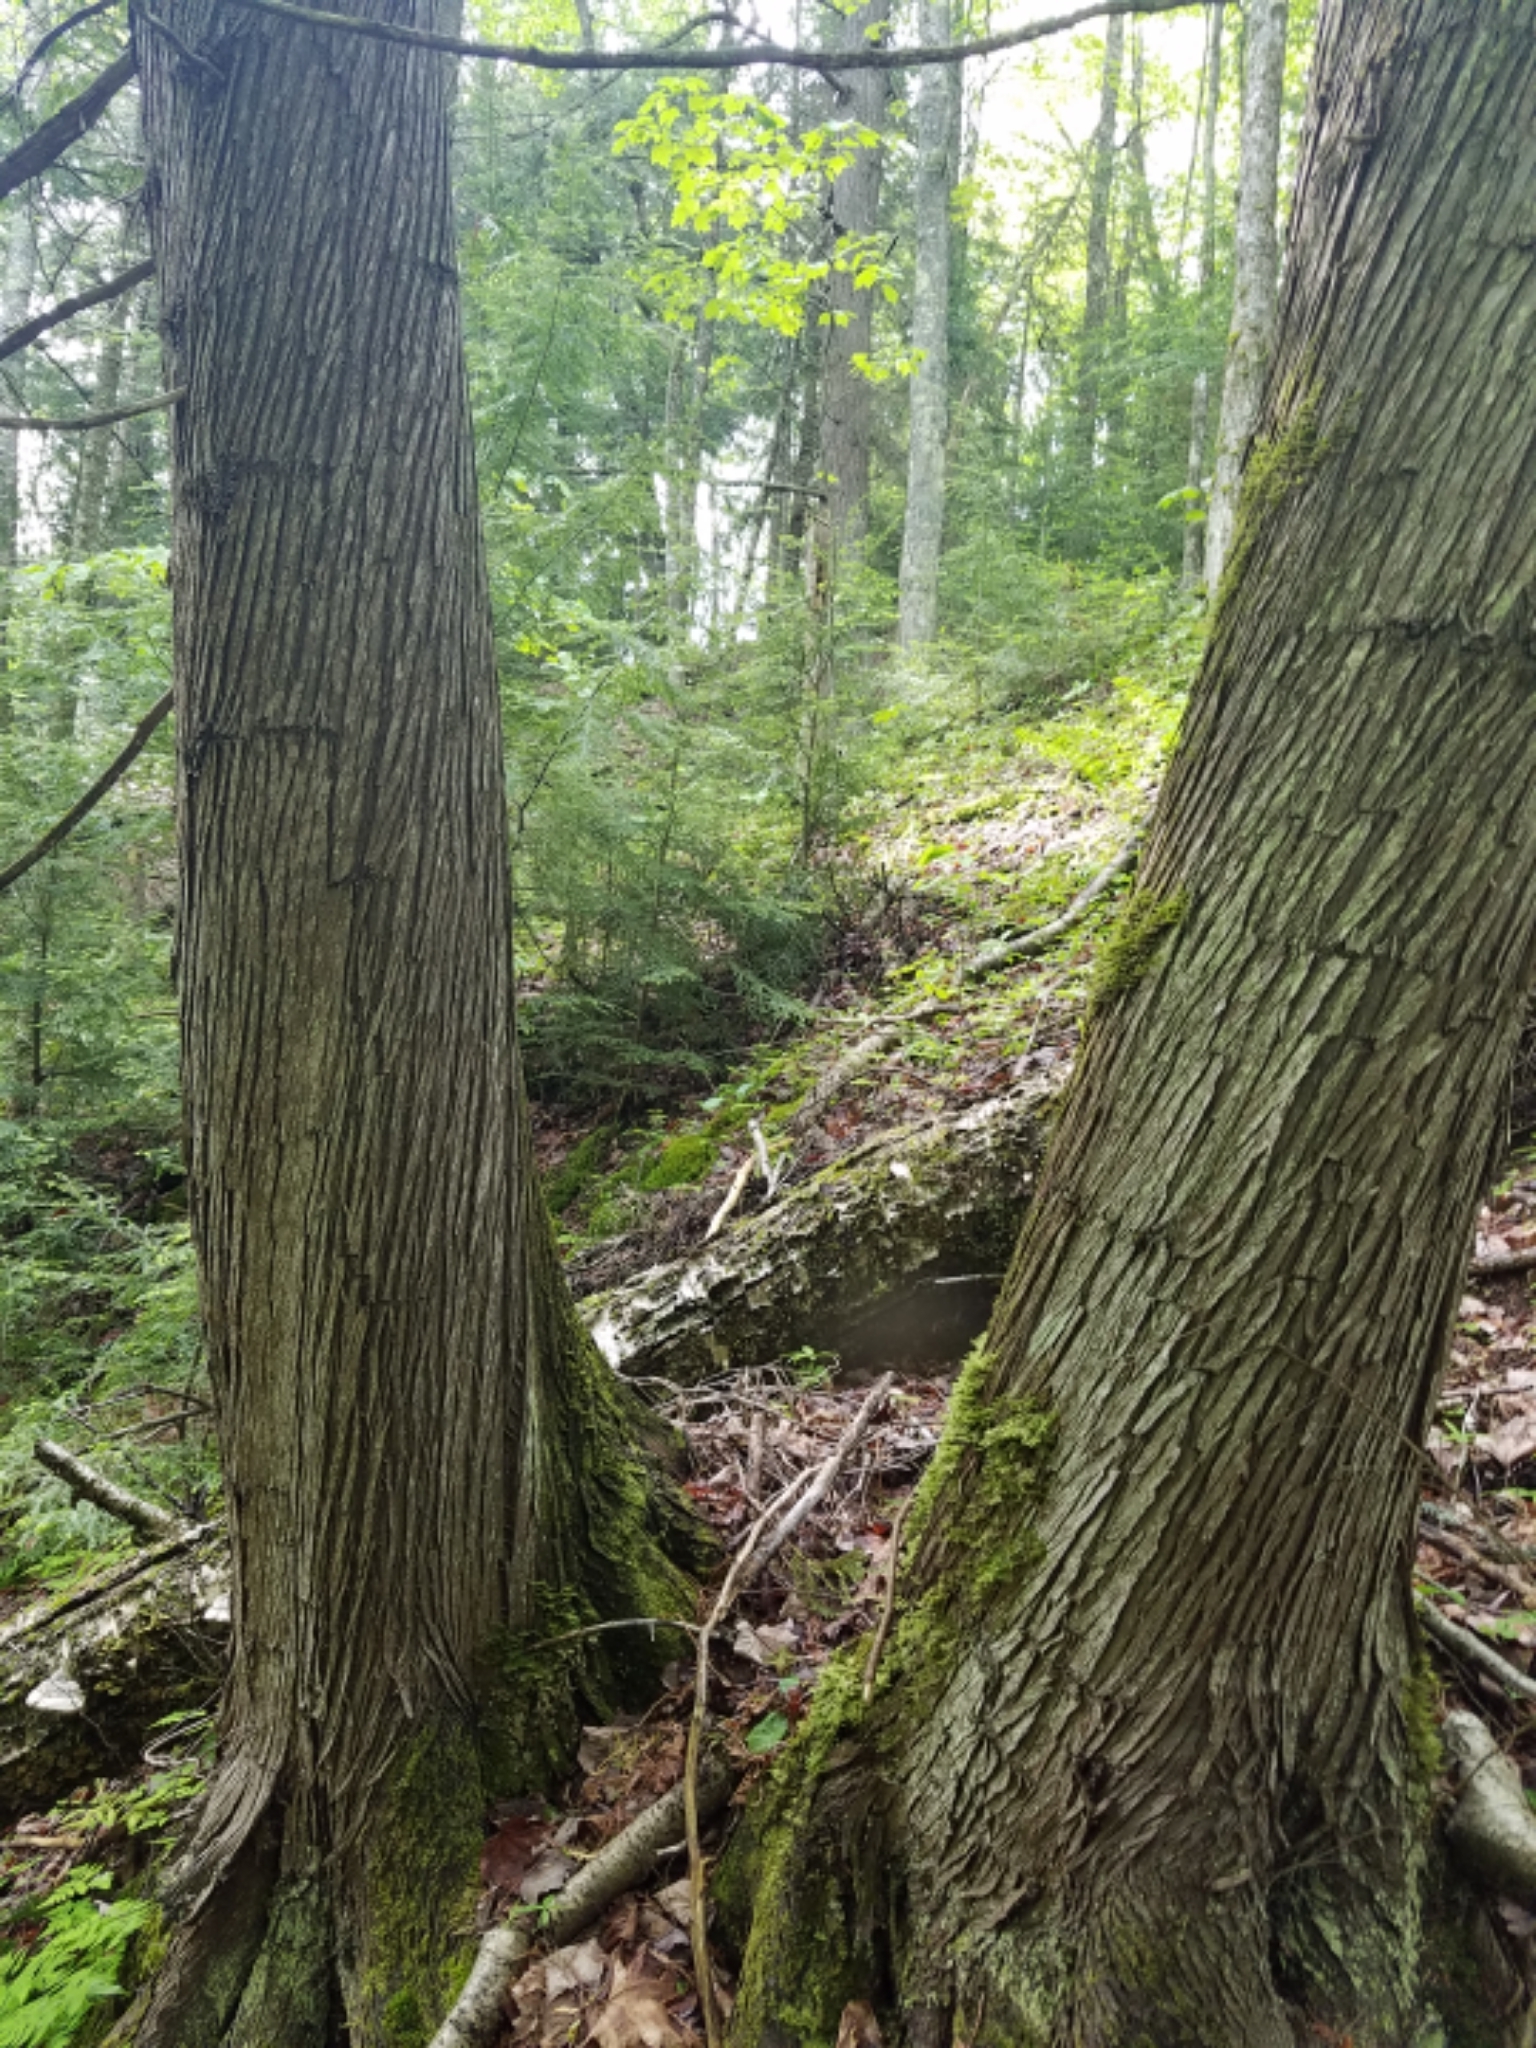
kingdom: Plantae
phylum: Tracheophyta
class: Pinopsida
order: Pinales
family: Cupressaceae
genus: Thuja
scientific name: Thuja occidentalis
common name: Northern white-cedar
